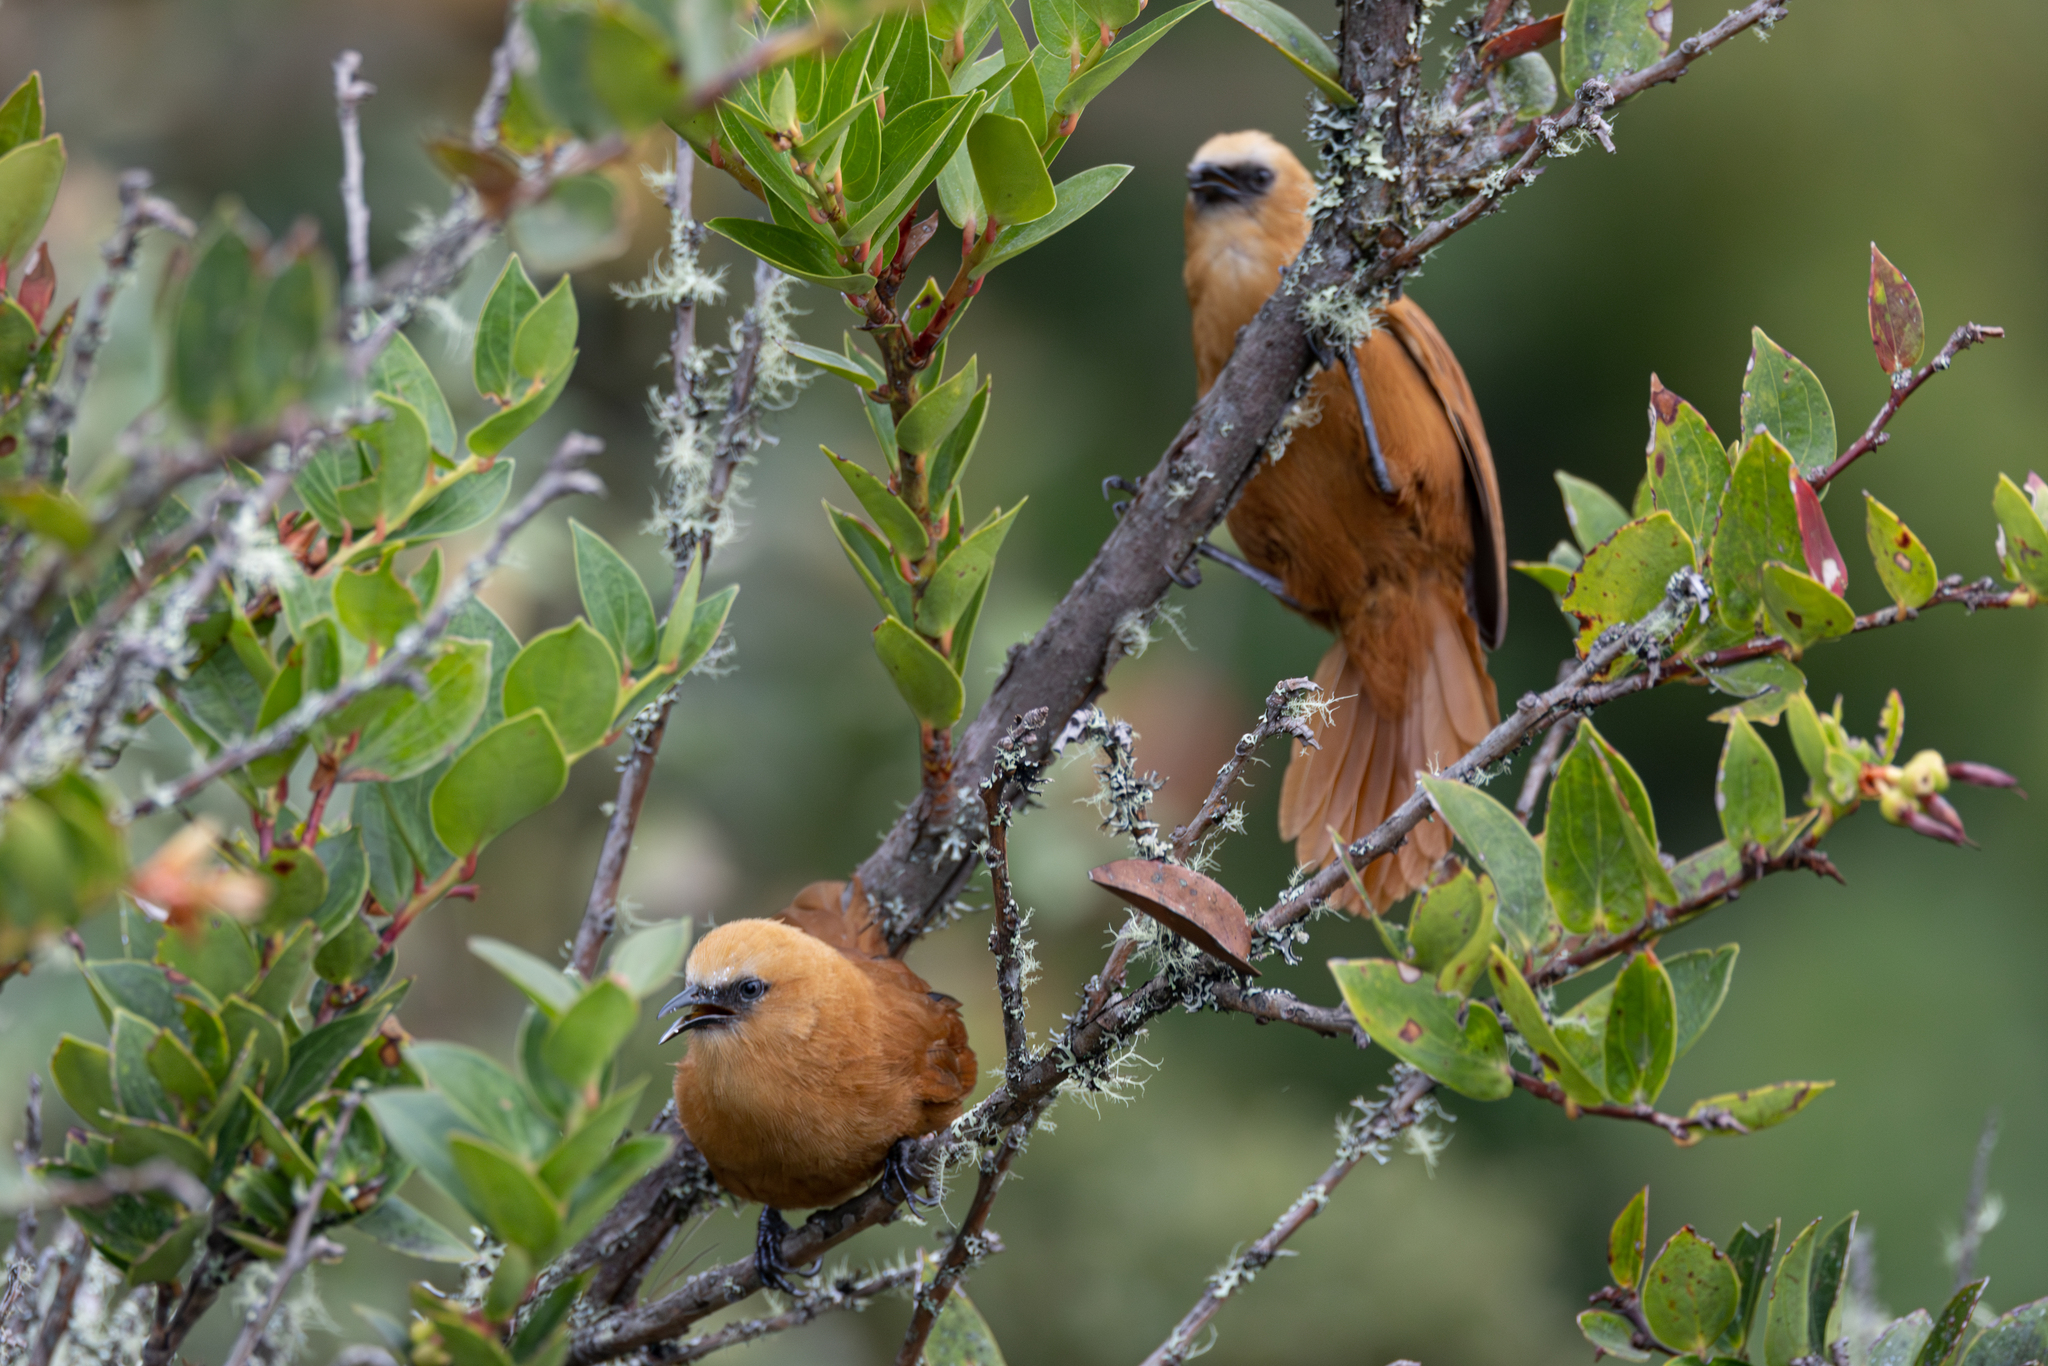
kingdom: Animalia
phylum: Chordata
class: Aves
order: Passeriformes
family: Troglodytidae
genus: Cinnycerthia
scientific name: Cinnycerthia unirufa
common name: Rufous wren
